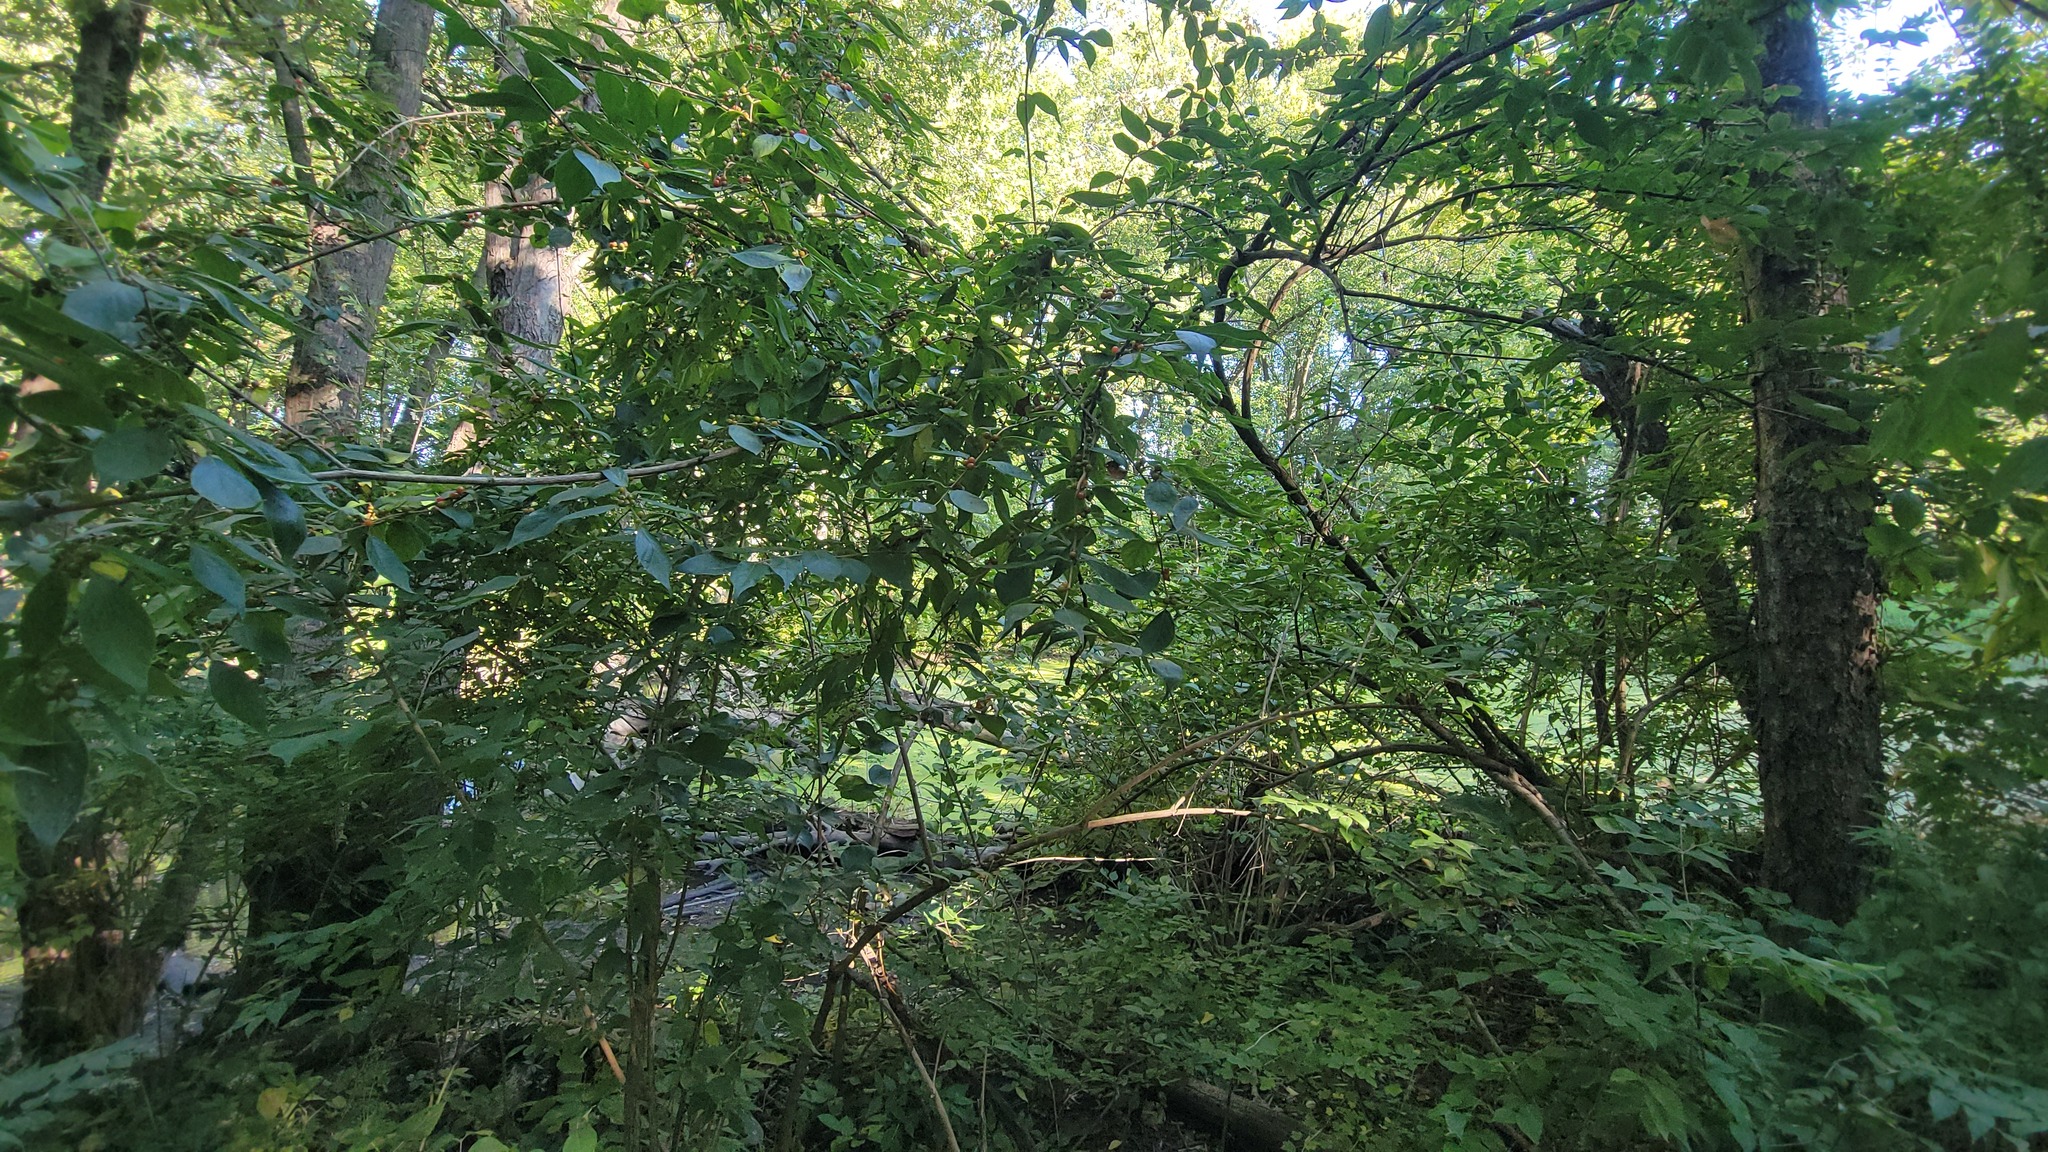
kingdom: Plantae
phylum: Tracheophyta
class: Magnoliopsida
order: Dipsacales
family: Caprifoliaceae
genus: Lonicera
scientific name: Lonicera maackii
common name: Amur honeysuckle
